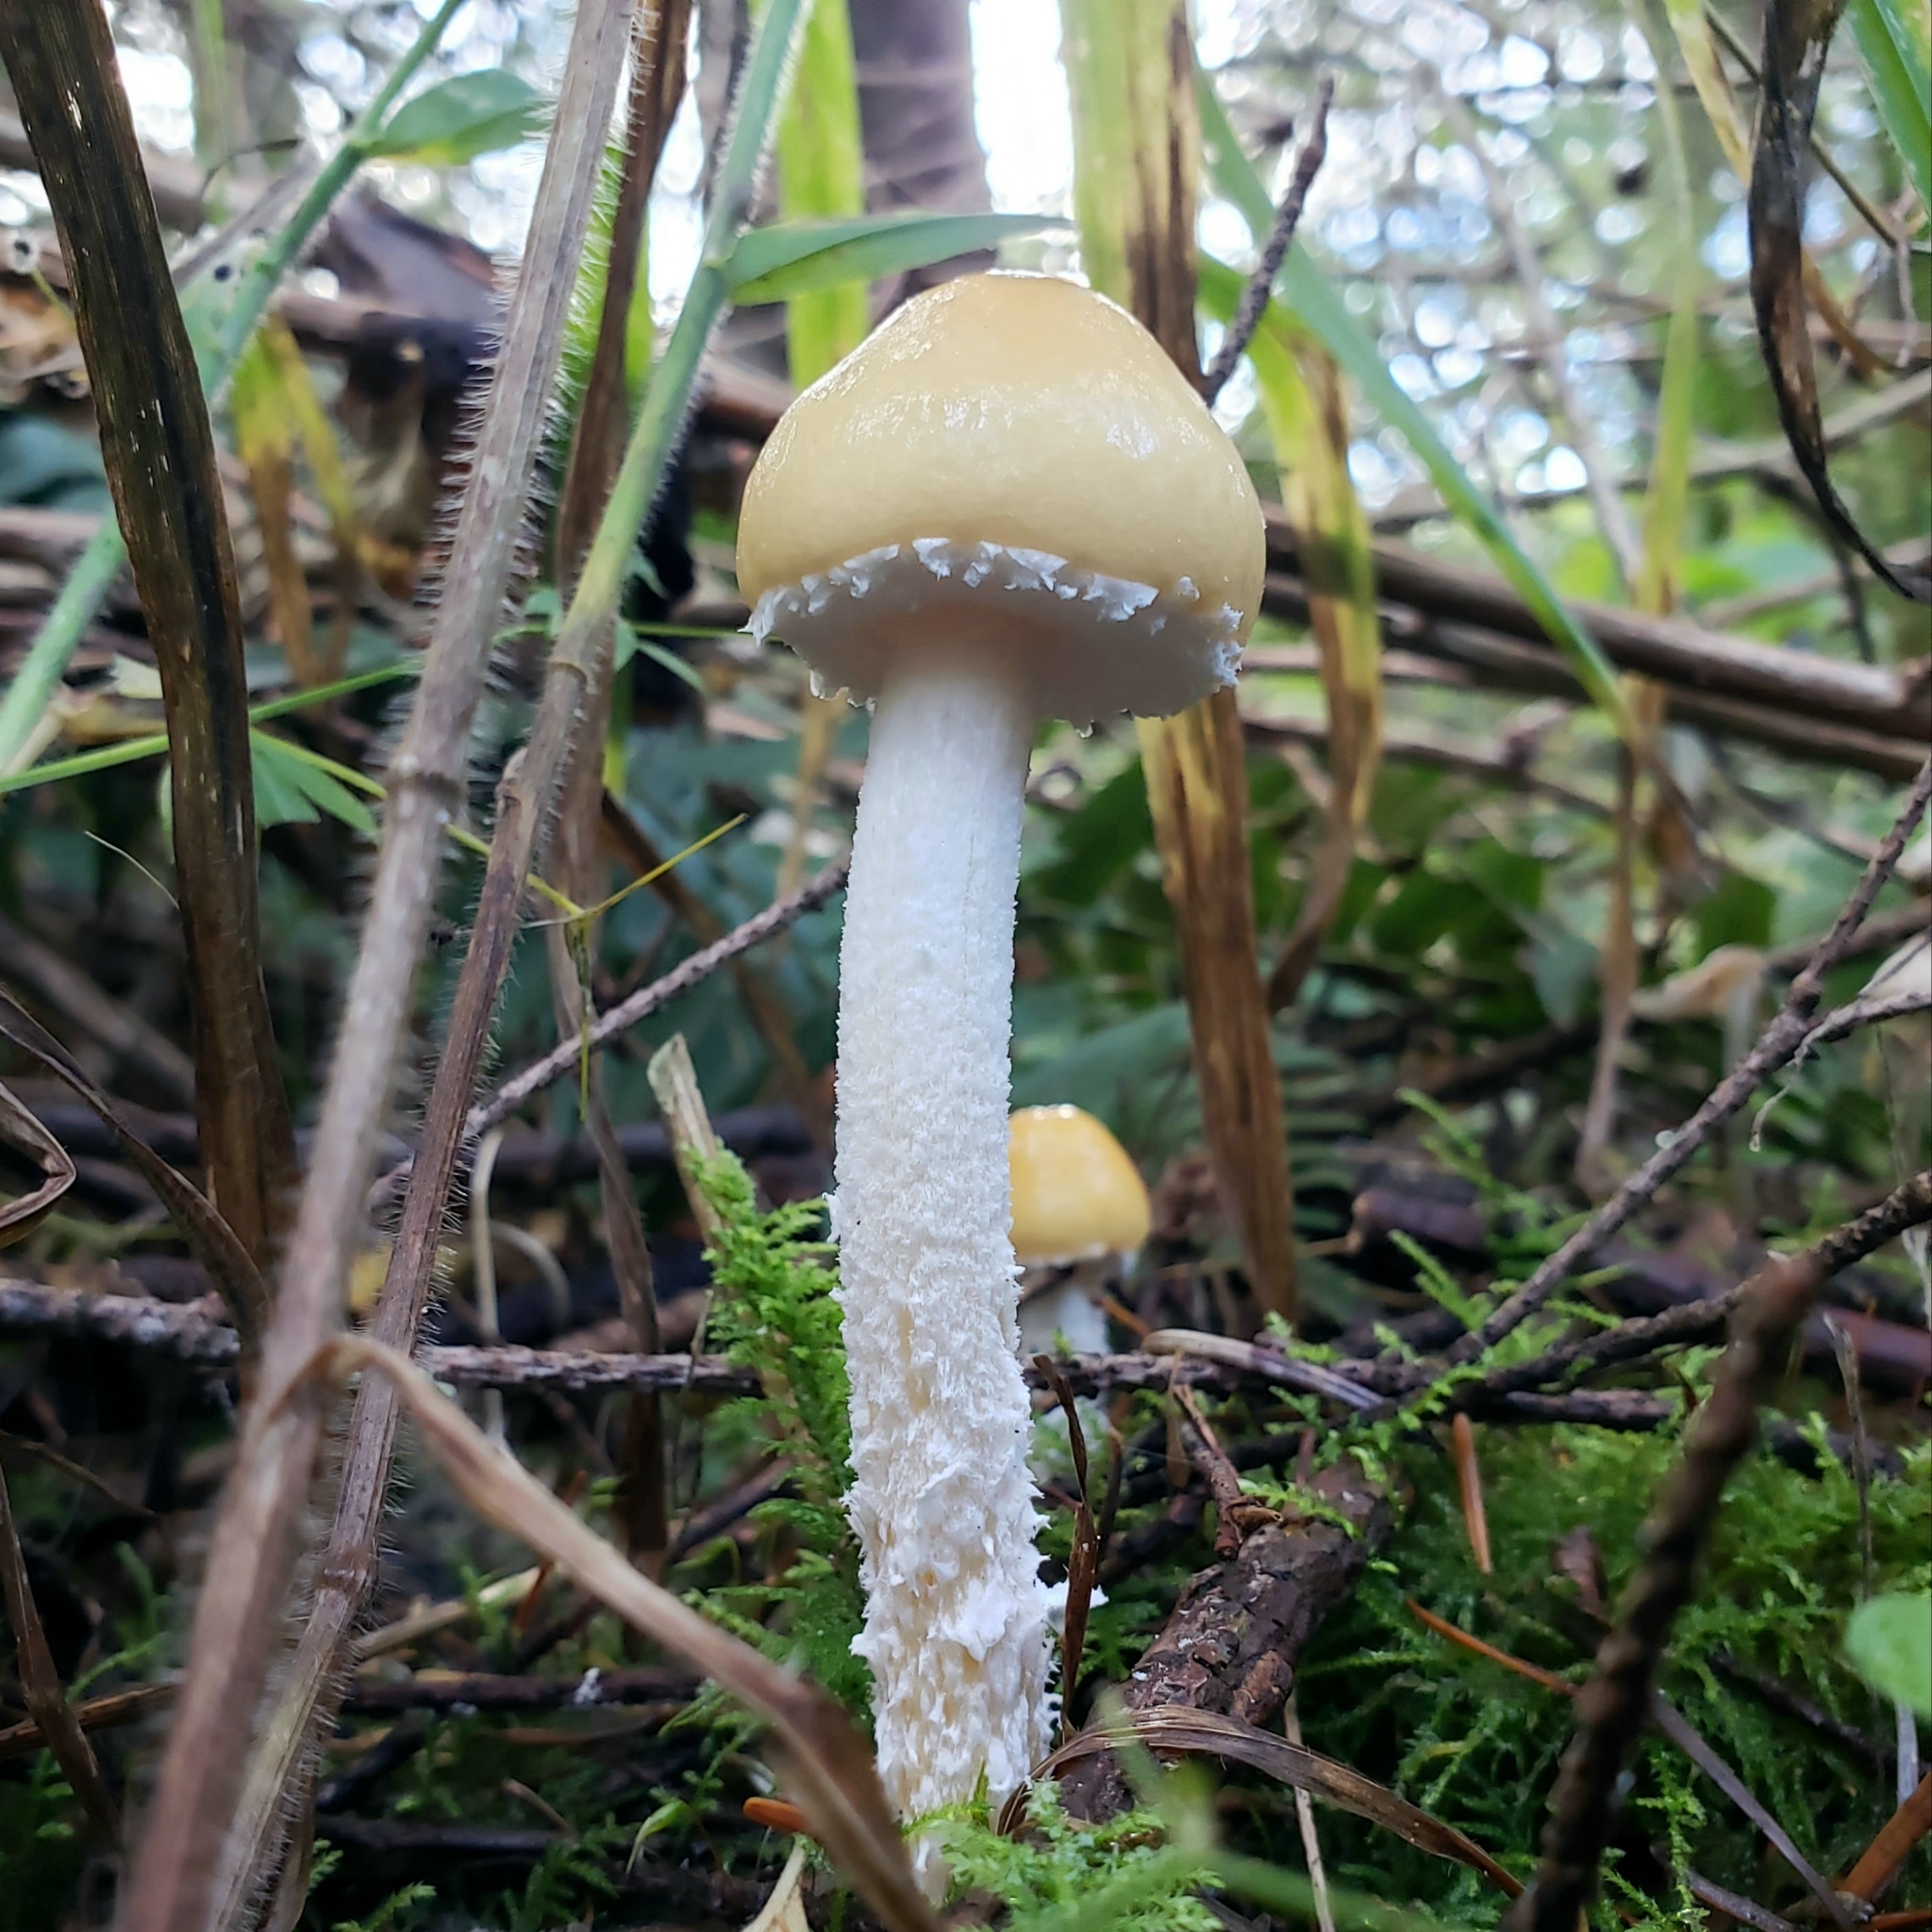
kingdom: Fungi
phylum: Basidiomycota
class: Agaricomycetes
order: Agaricales
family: Strophariaceae
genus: Stropharia
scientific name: Stropharia ambigua
